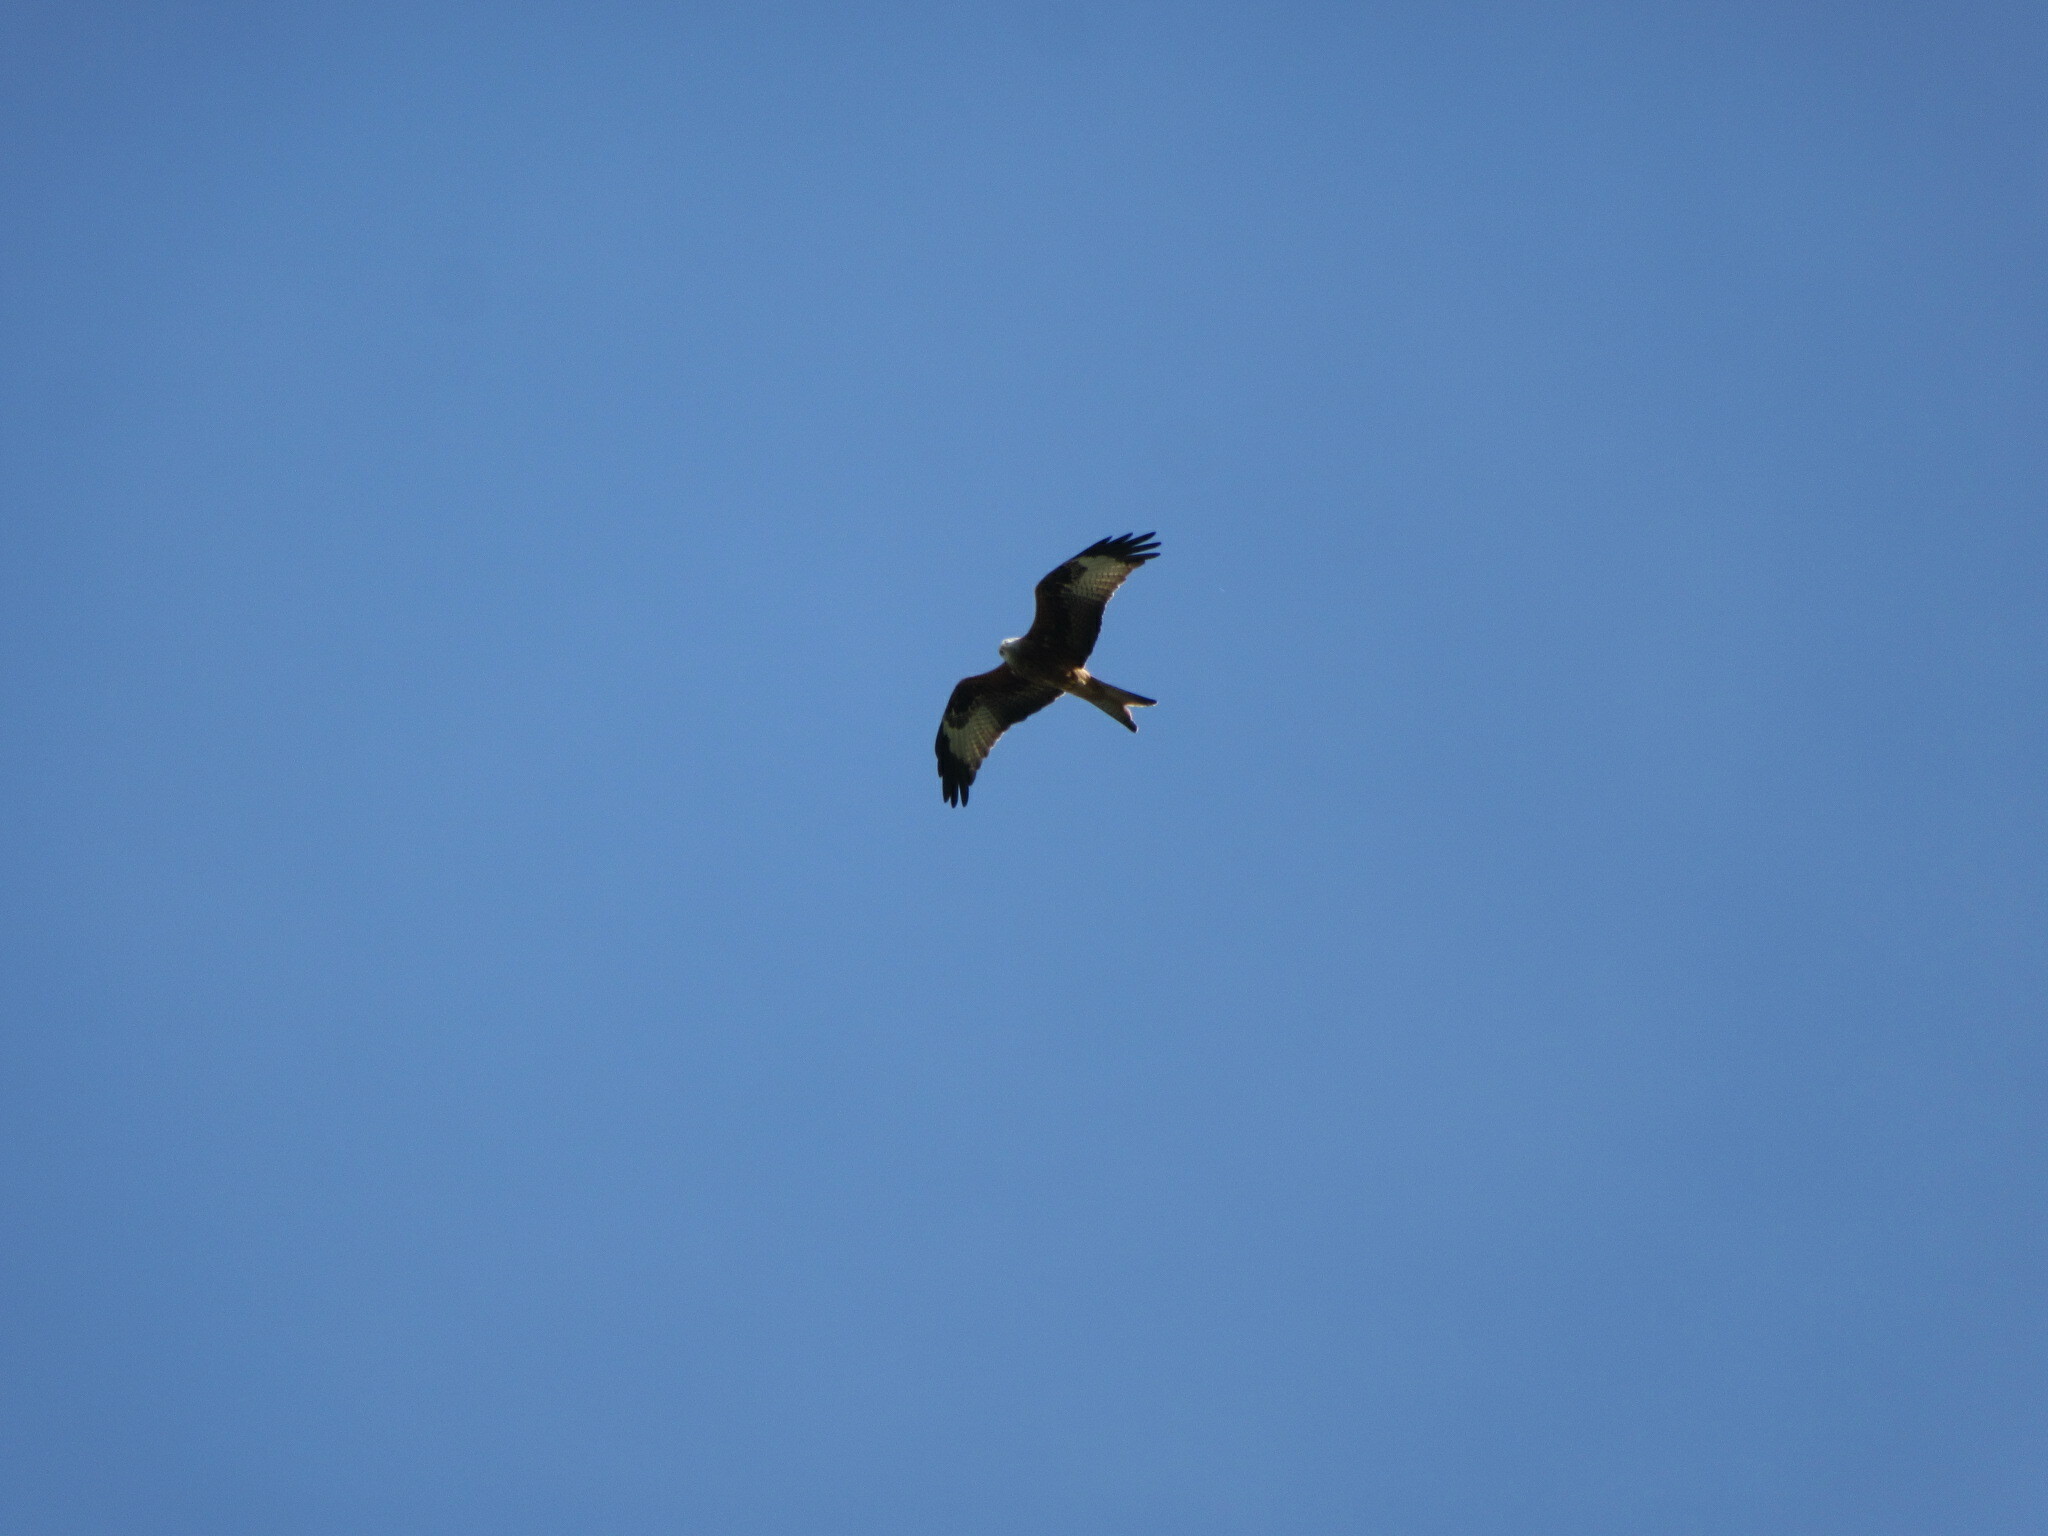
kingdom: Animalia
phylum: Chordata
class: Aves
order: Accipitriformes
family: Accipitridae
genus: Milvus
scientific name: Milvus milvus
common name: Red kite
